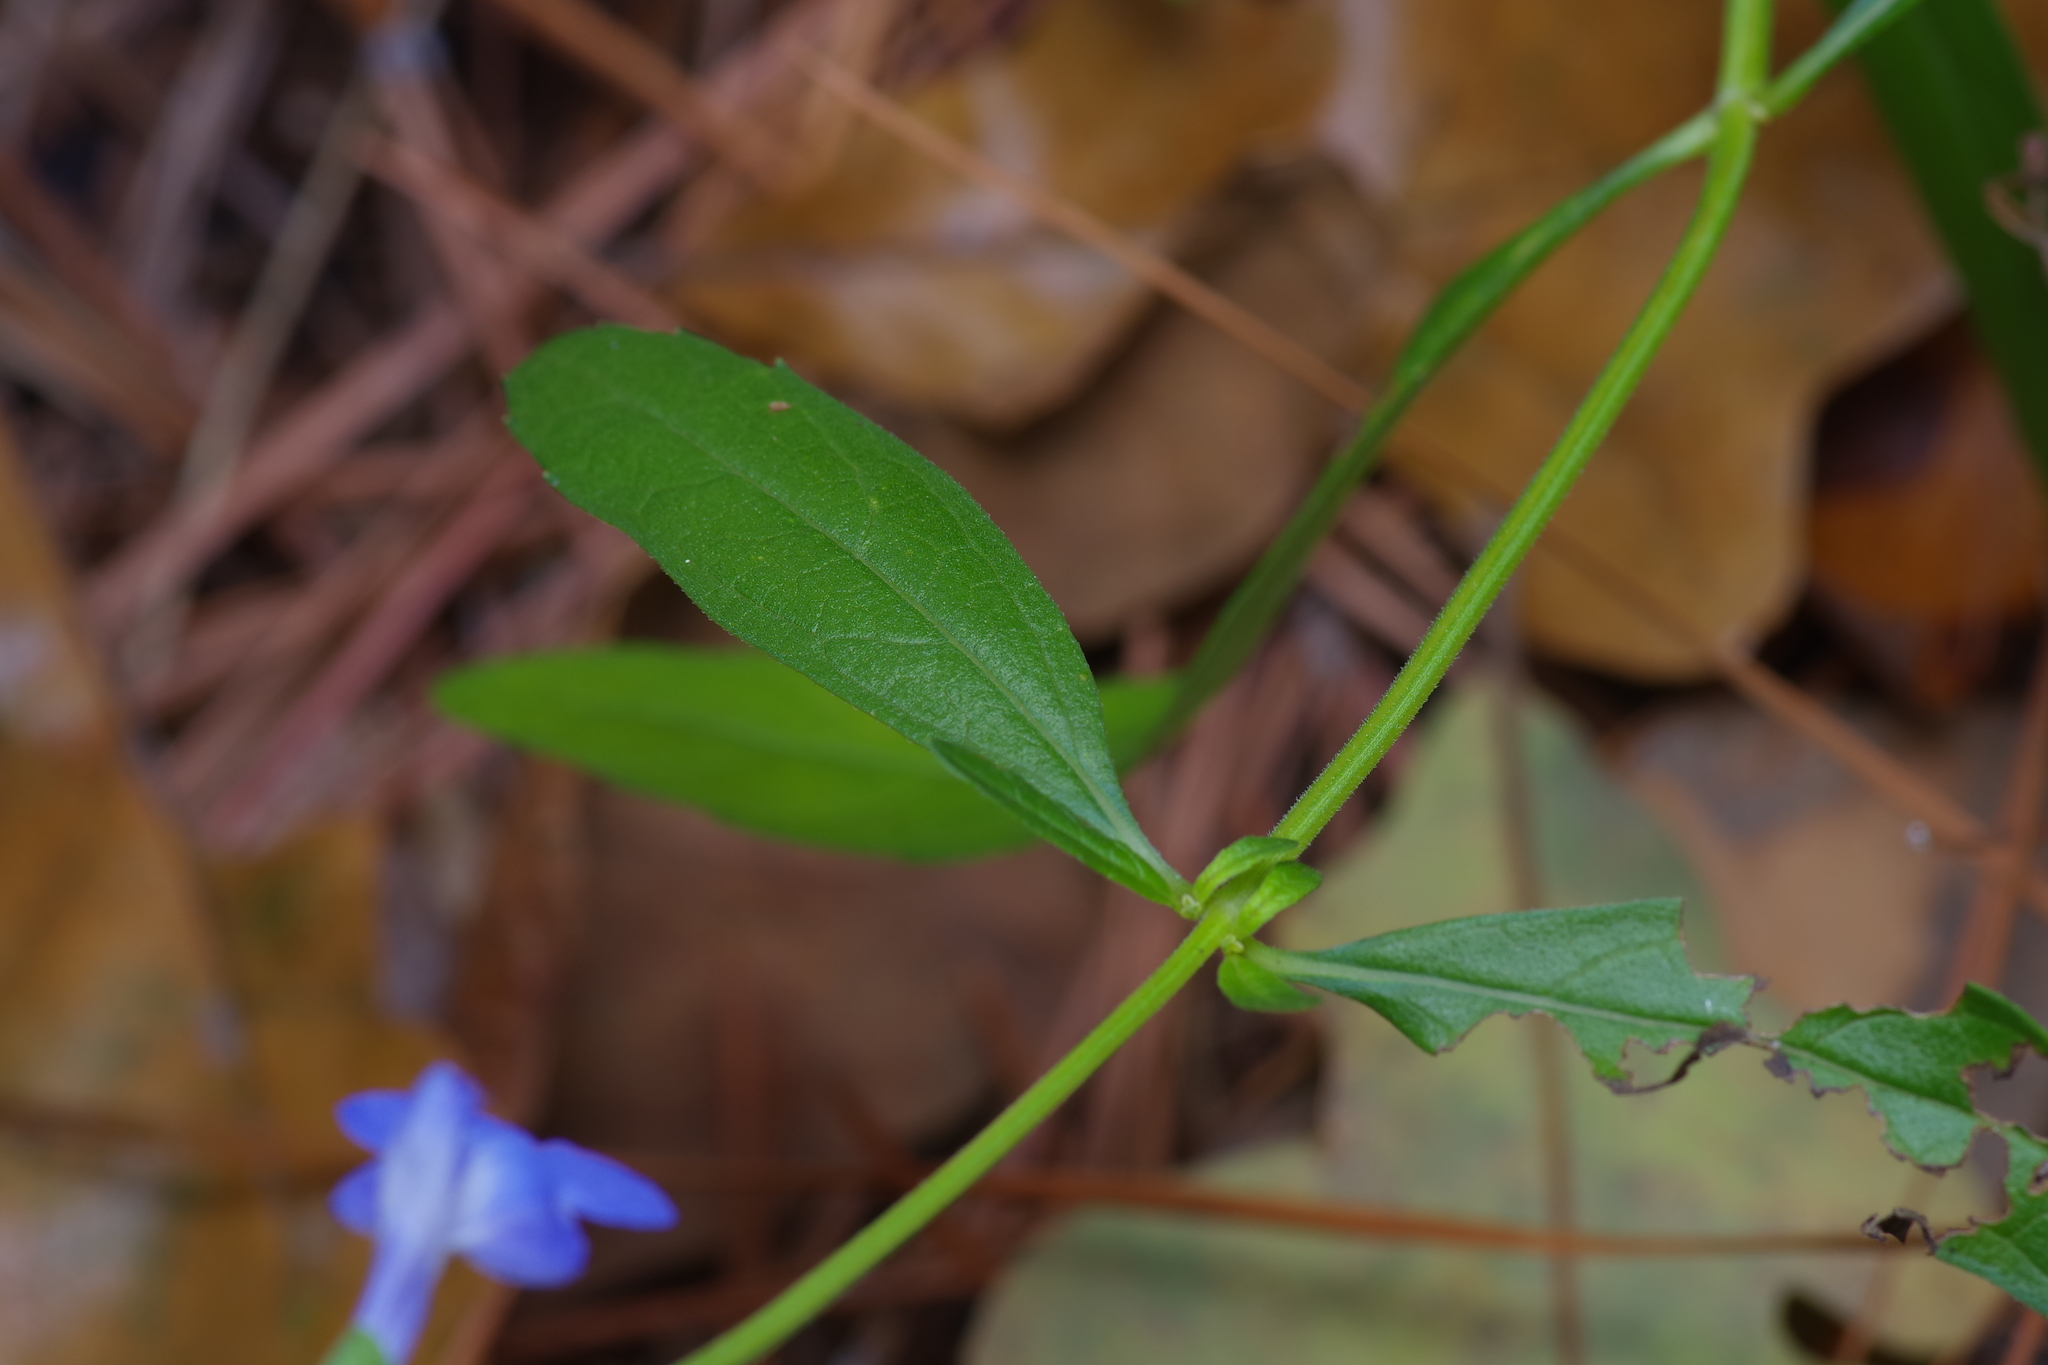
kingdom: Plantae
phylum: Tracheophyta
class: Magnoliopsida
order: Lamiales
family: Lamiaceae
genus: Salvia
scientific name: Salvia azurea
